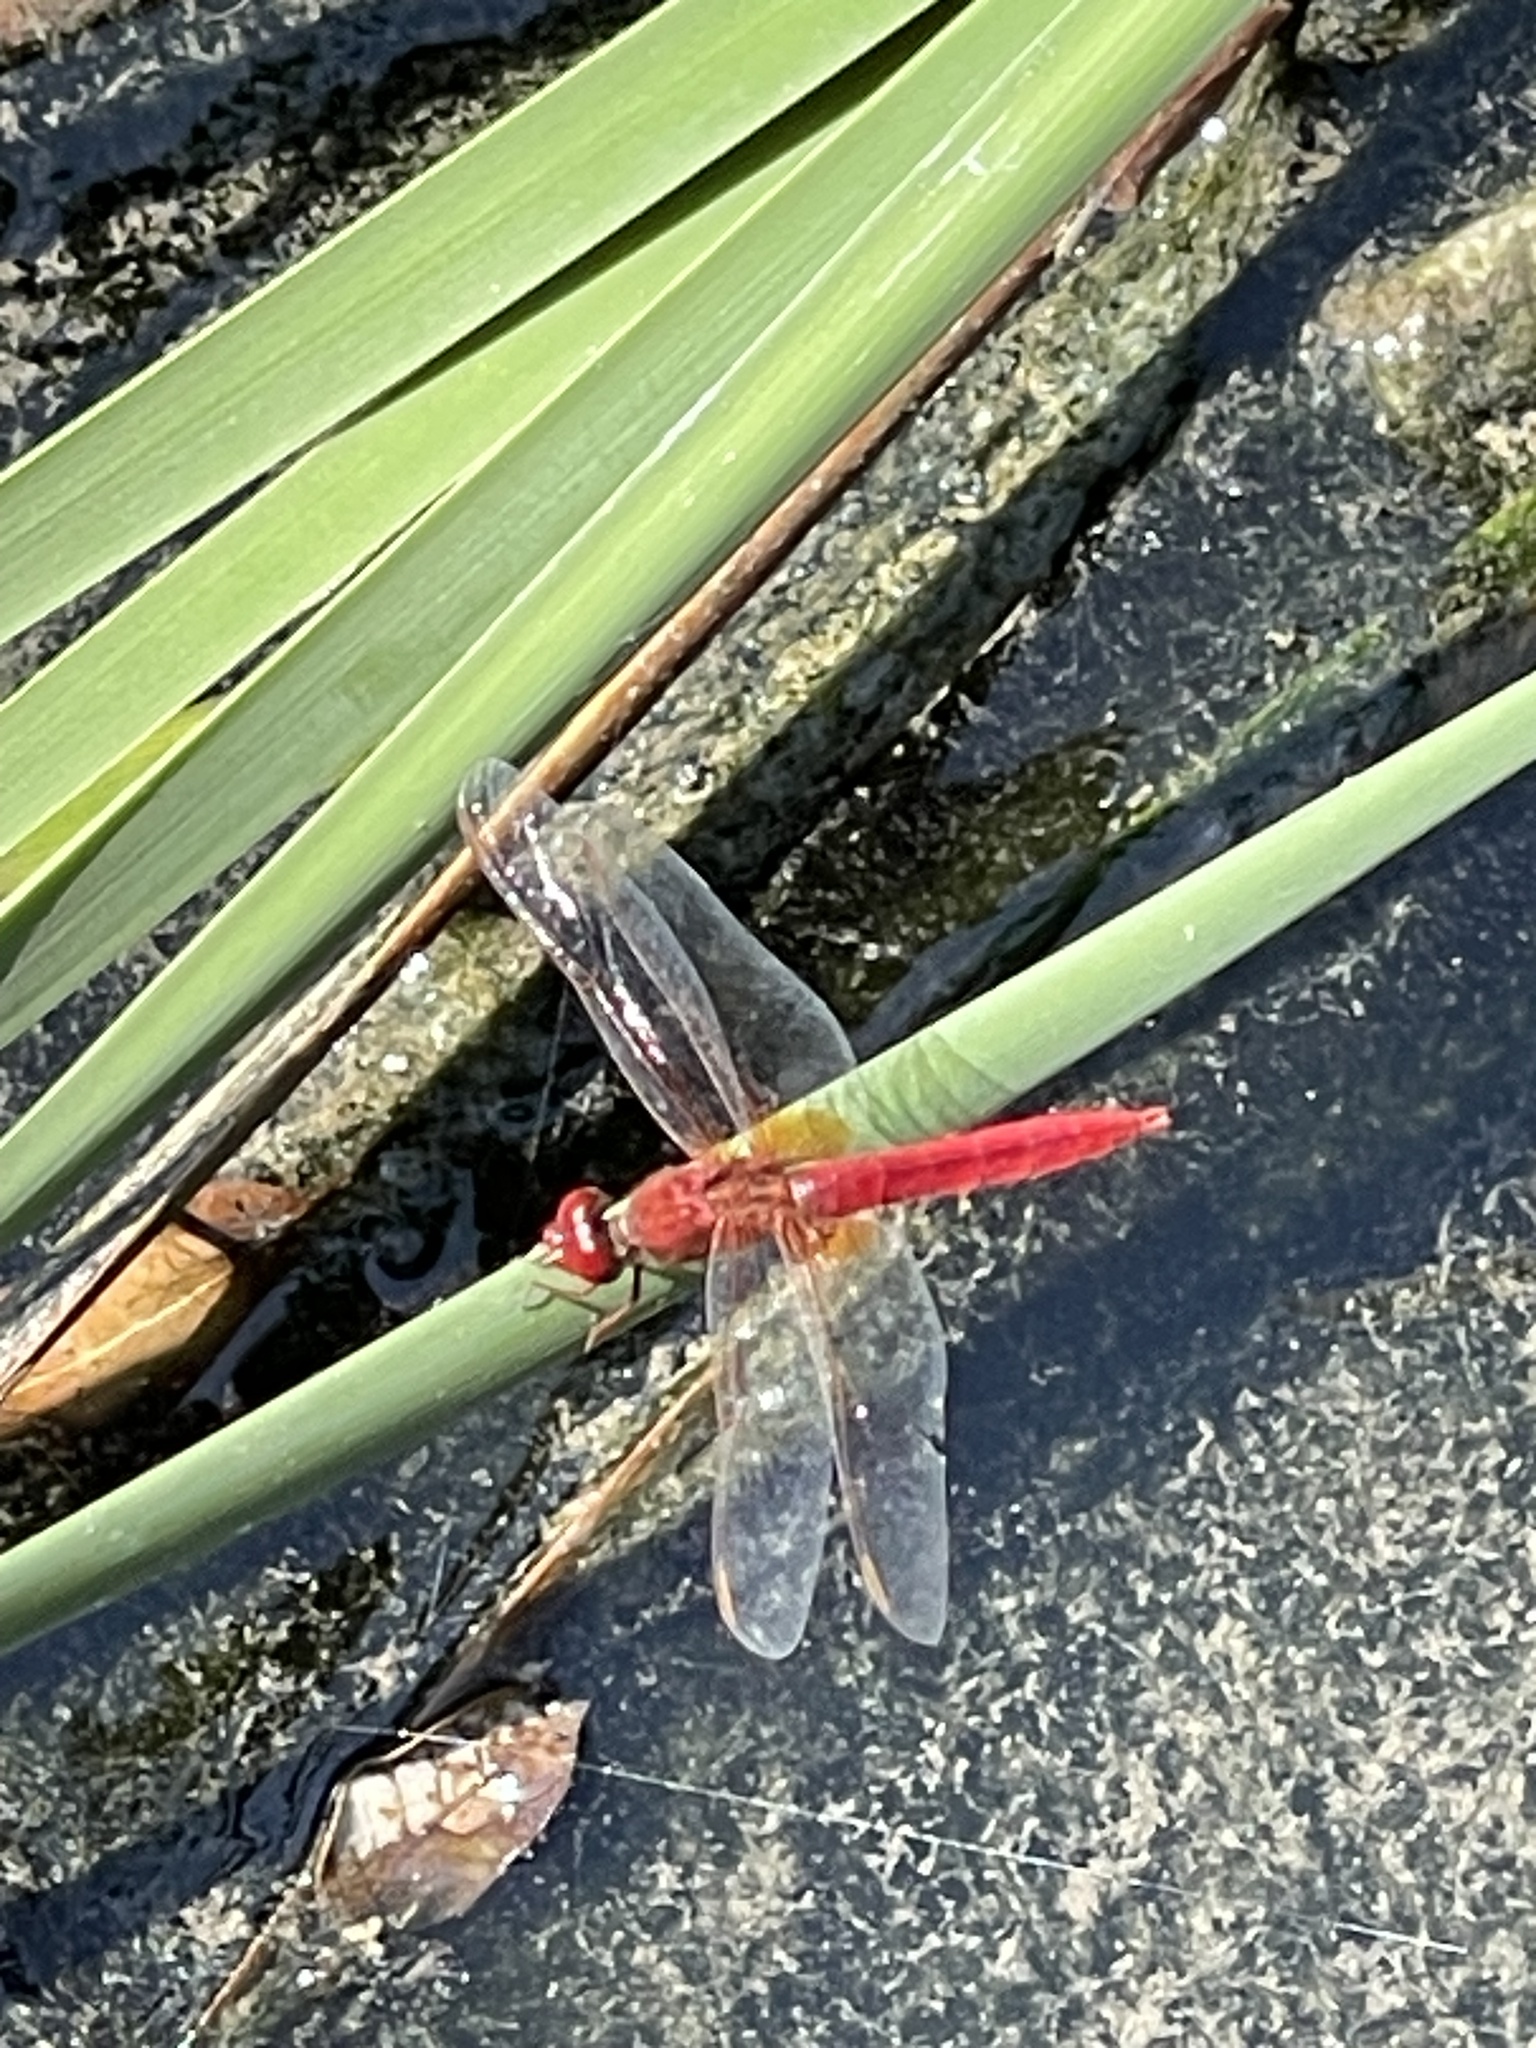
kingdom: Animalia
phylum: Arthropoda
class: Insecta
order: Odonata
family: Libellulidae
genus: Crocothemis
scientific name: Crocothemis erythraea
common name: Scarlet dragonfly
